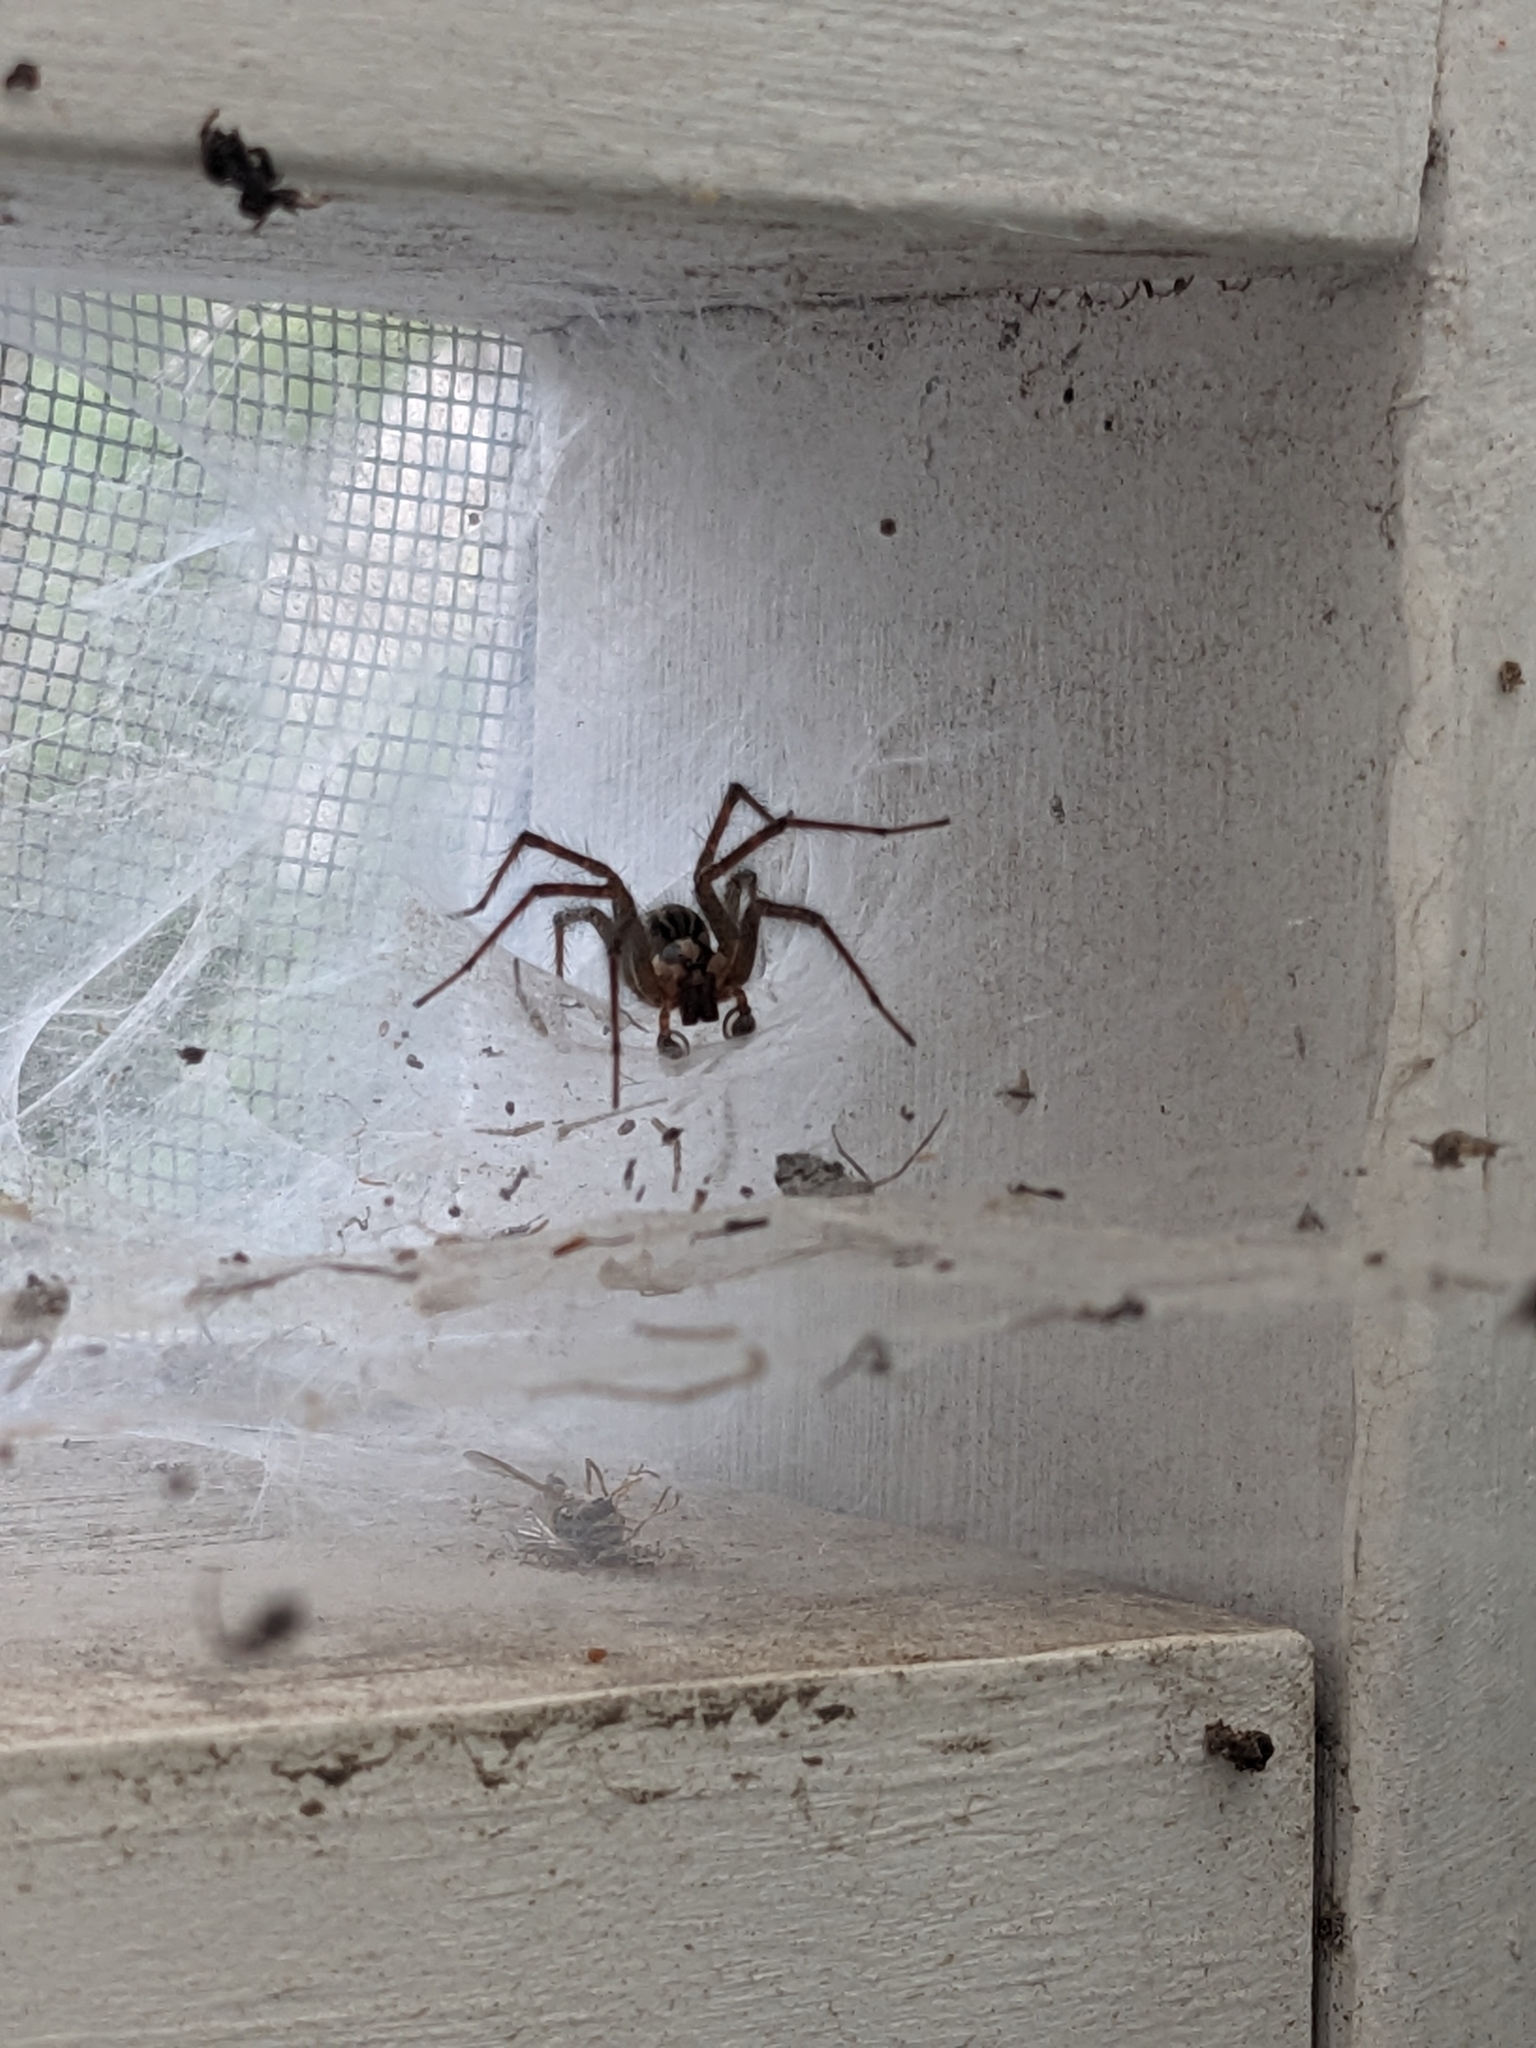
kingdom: Animalia
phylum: Arthropoda
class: Arachnida
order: Araneae
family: Agelenidae
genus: Agelenopsis
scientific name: Agelenopsis
